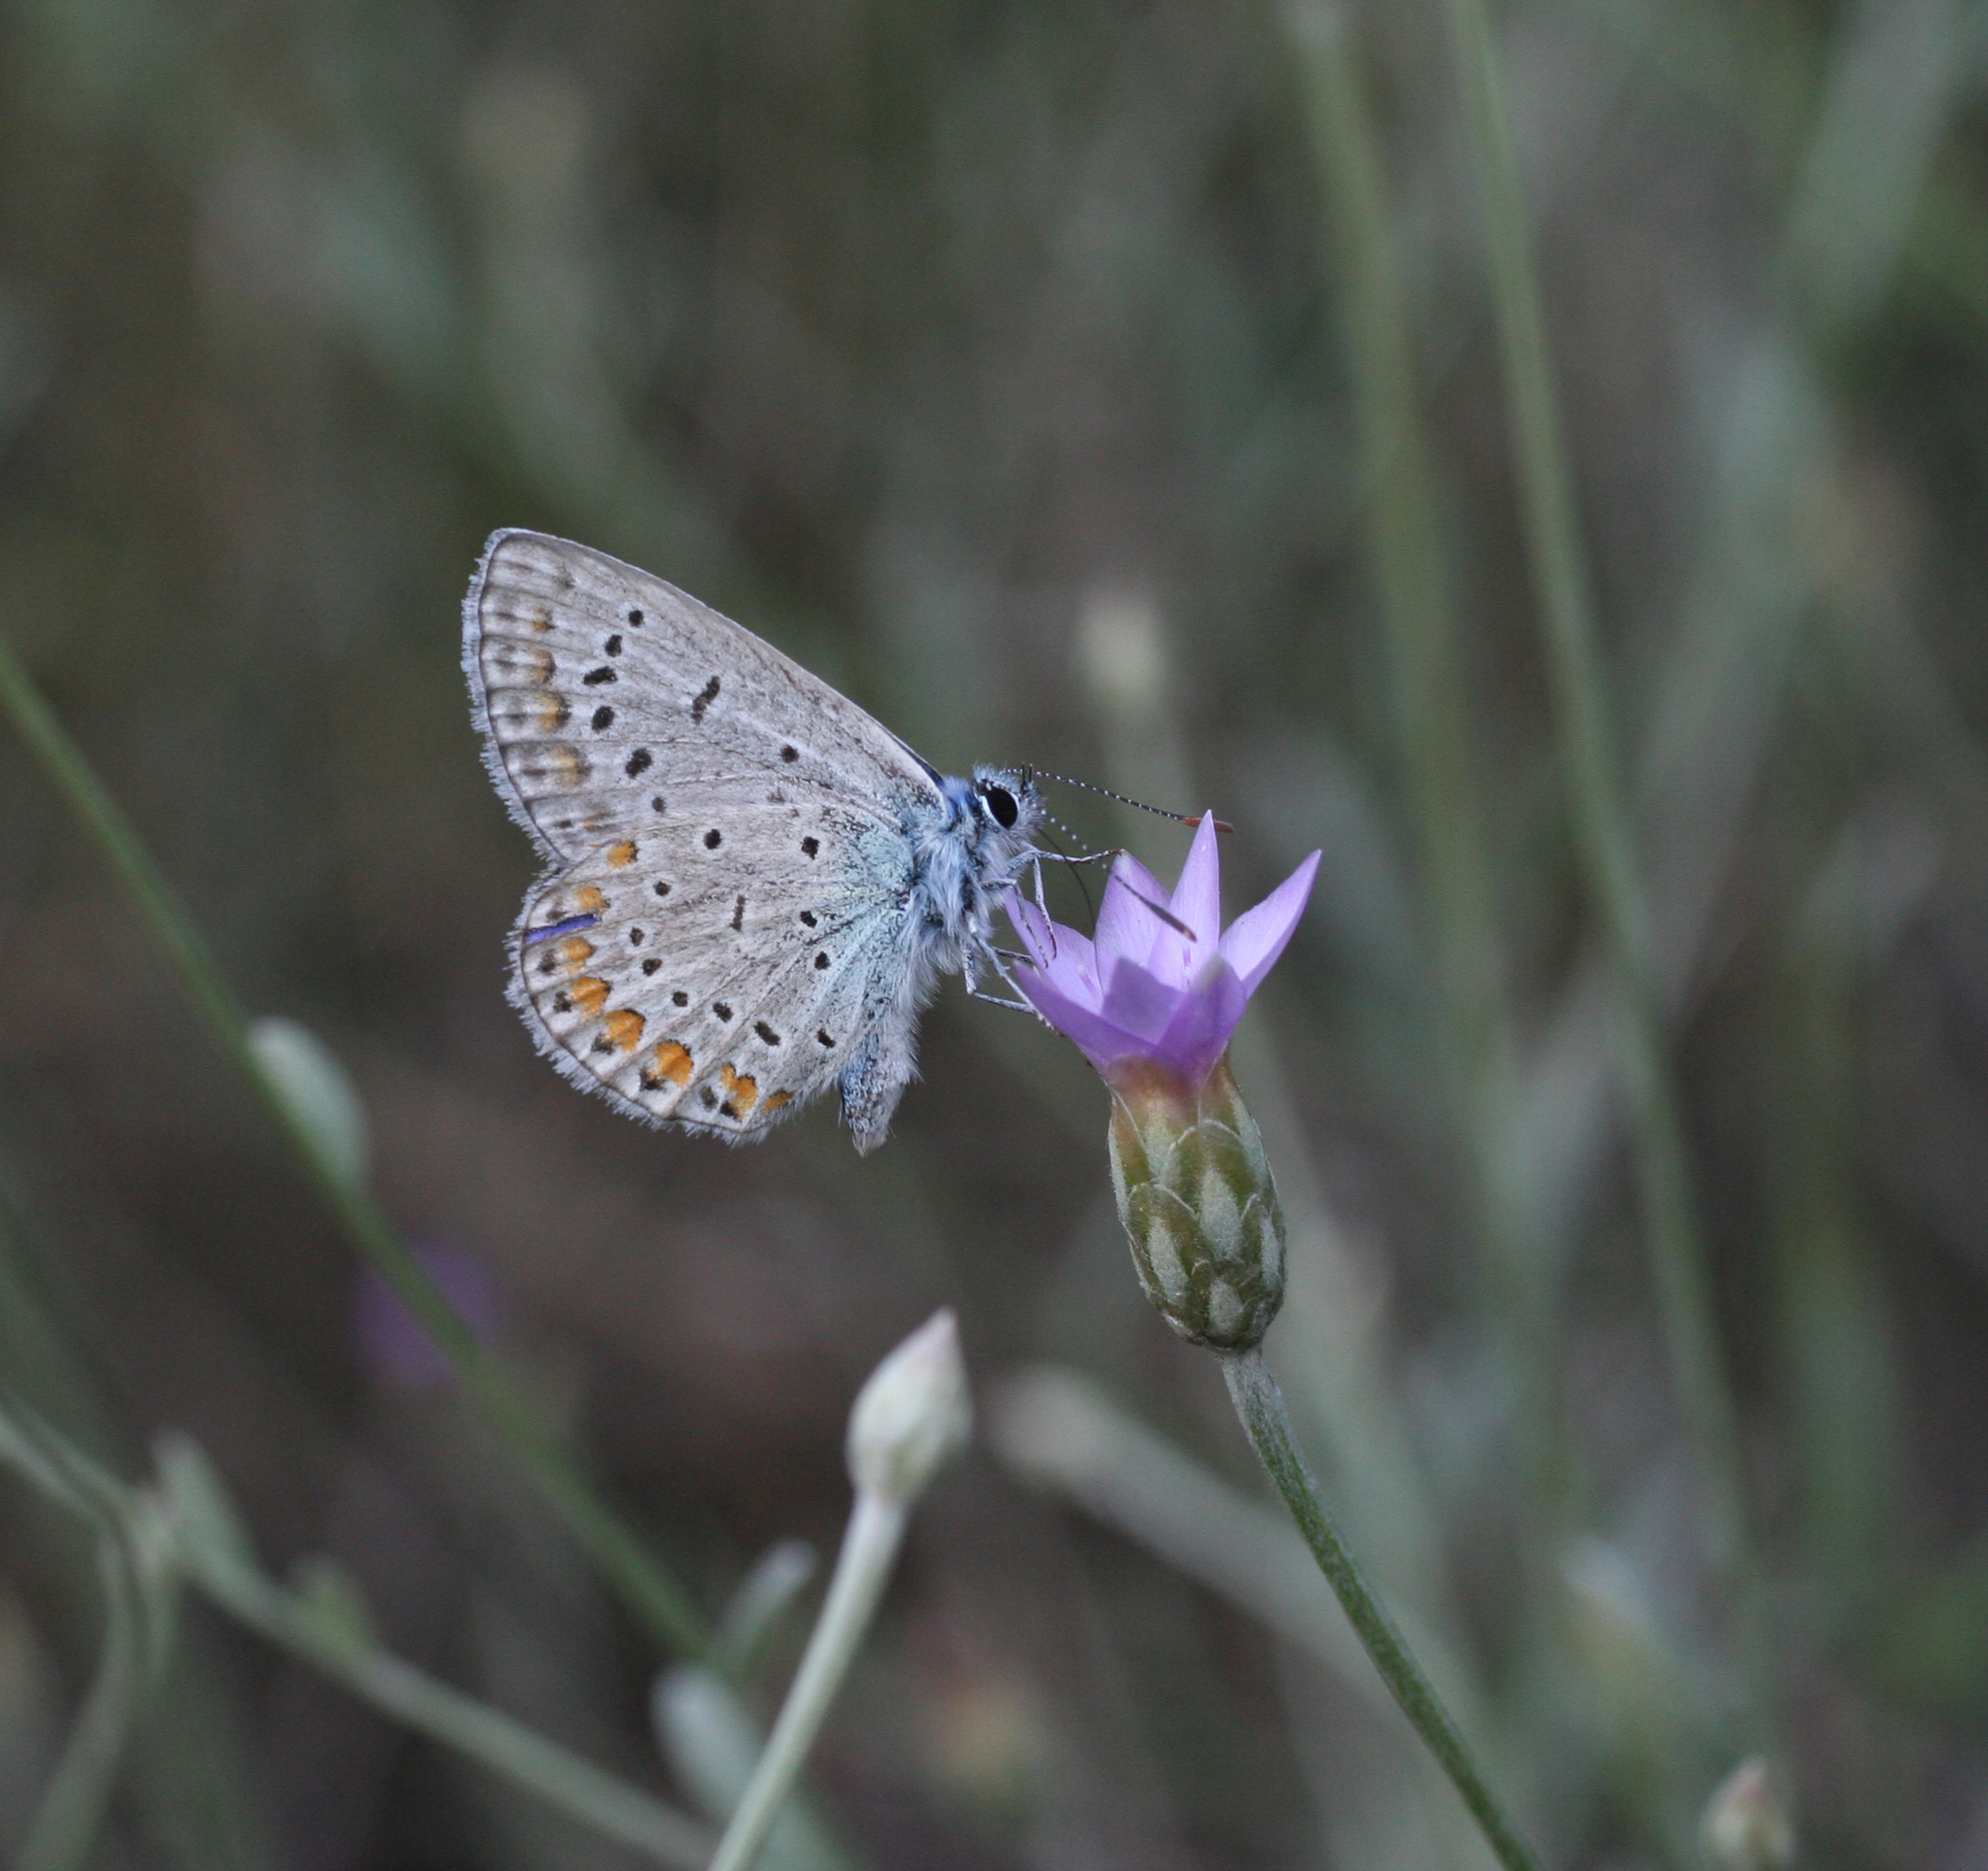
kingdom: Plantae
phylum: Tracheophyta
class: Magnoliopsida
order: Asterales
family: Asteraceae
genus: Xeranthemum
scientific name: Xeranthemum cylindraceum
